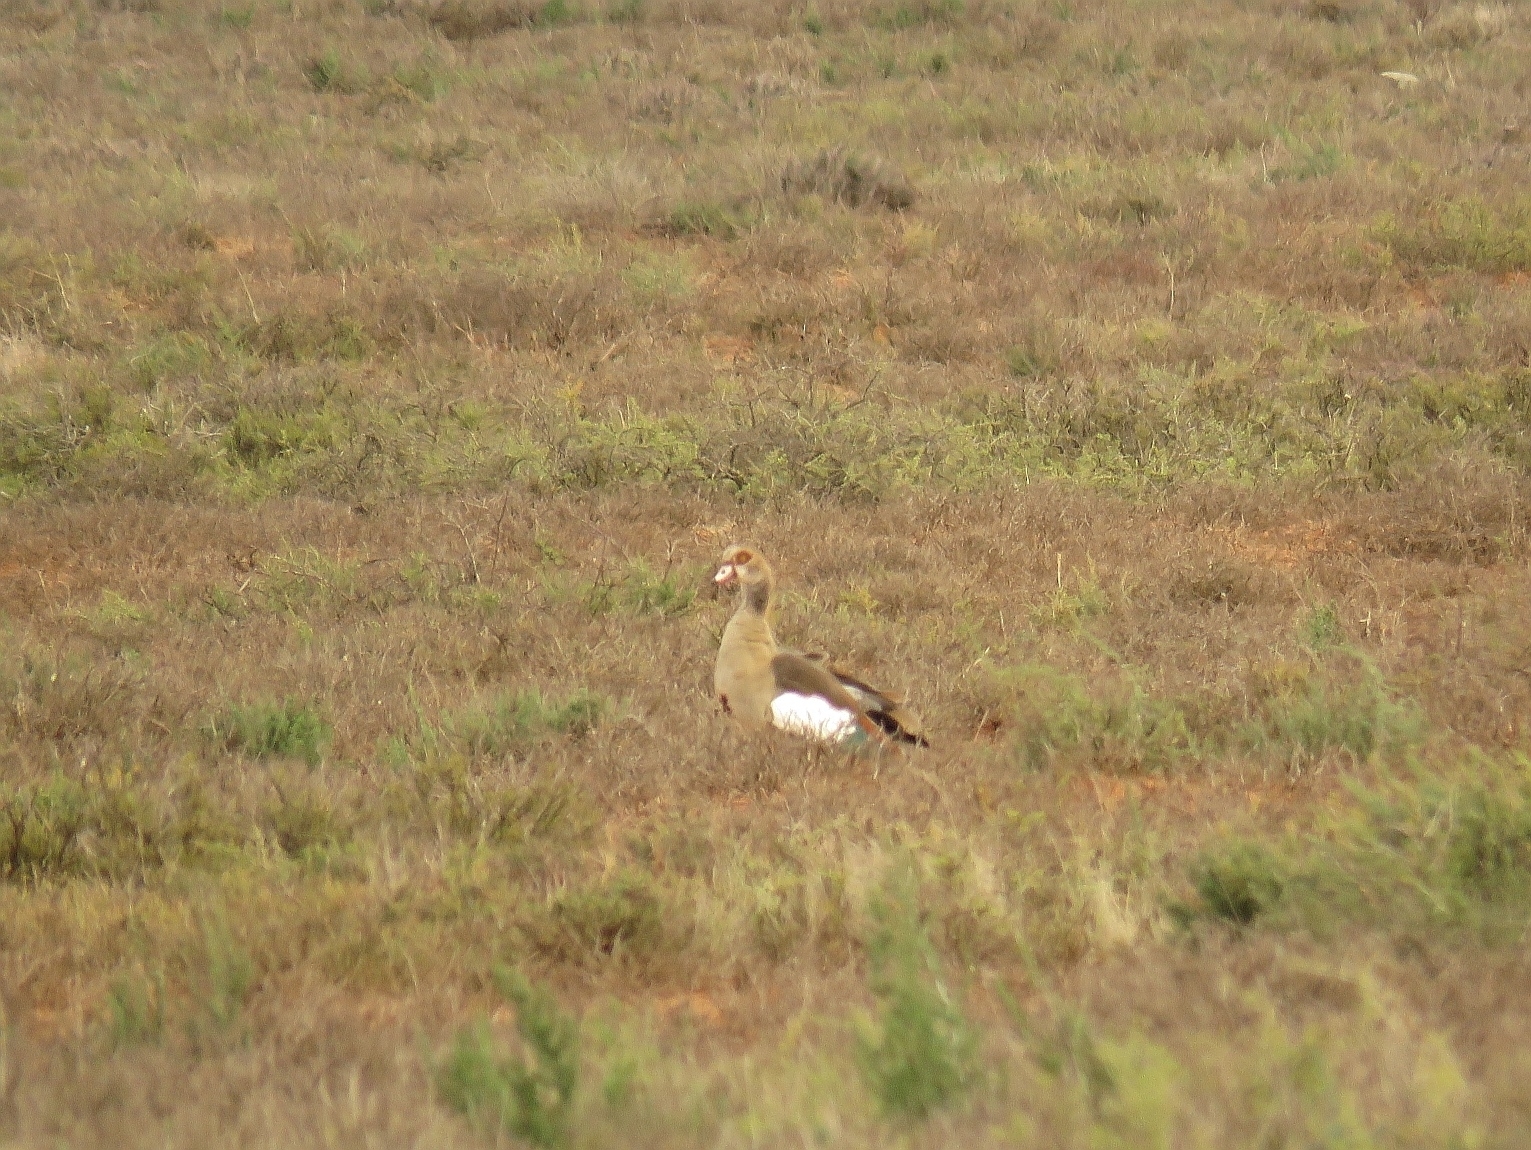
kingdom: Animalia
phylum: Chordata
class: Aves
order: Anseriformes
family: Anatidae
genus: Alopochen
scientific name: Alopochen aegyptiaca
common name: Egyptian goose
